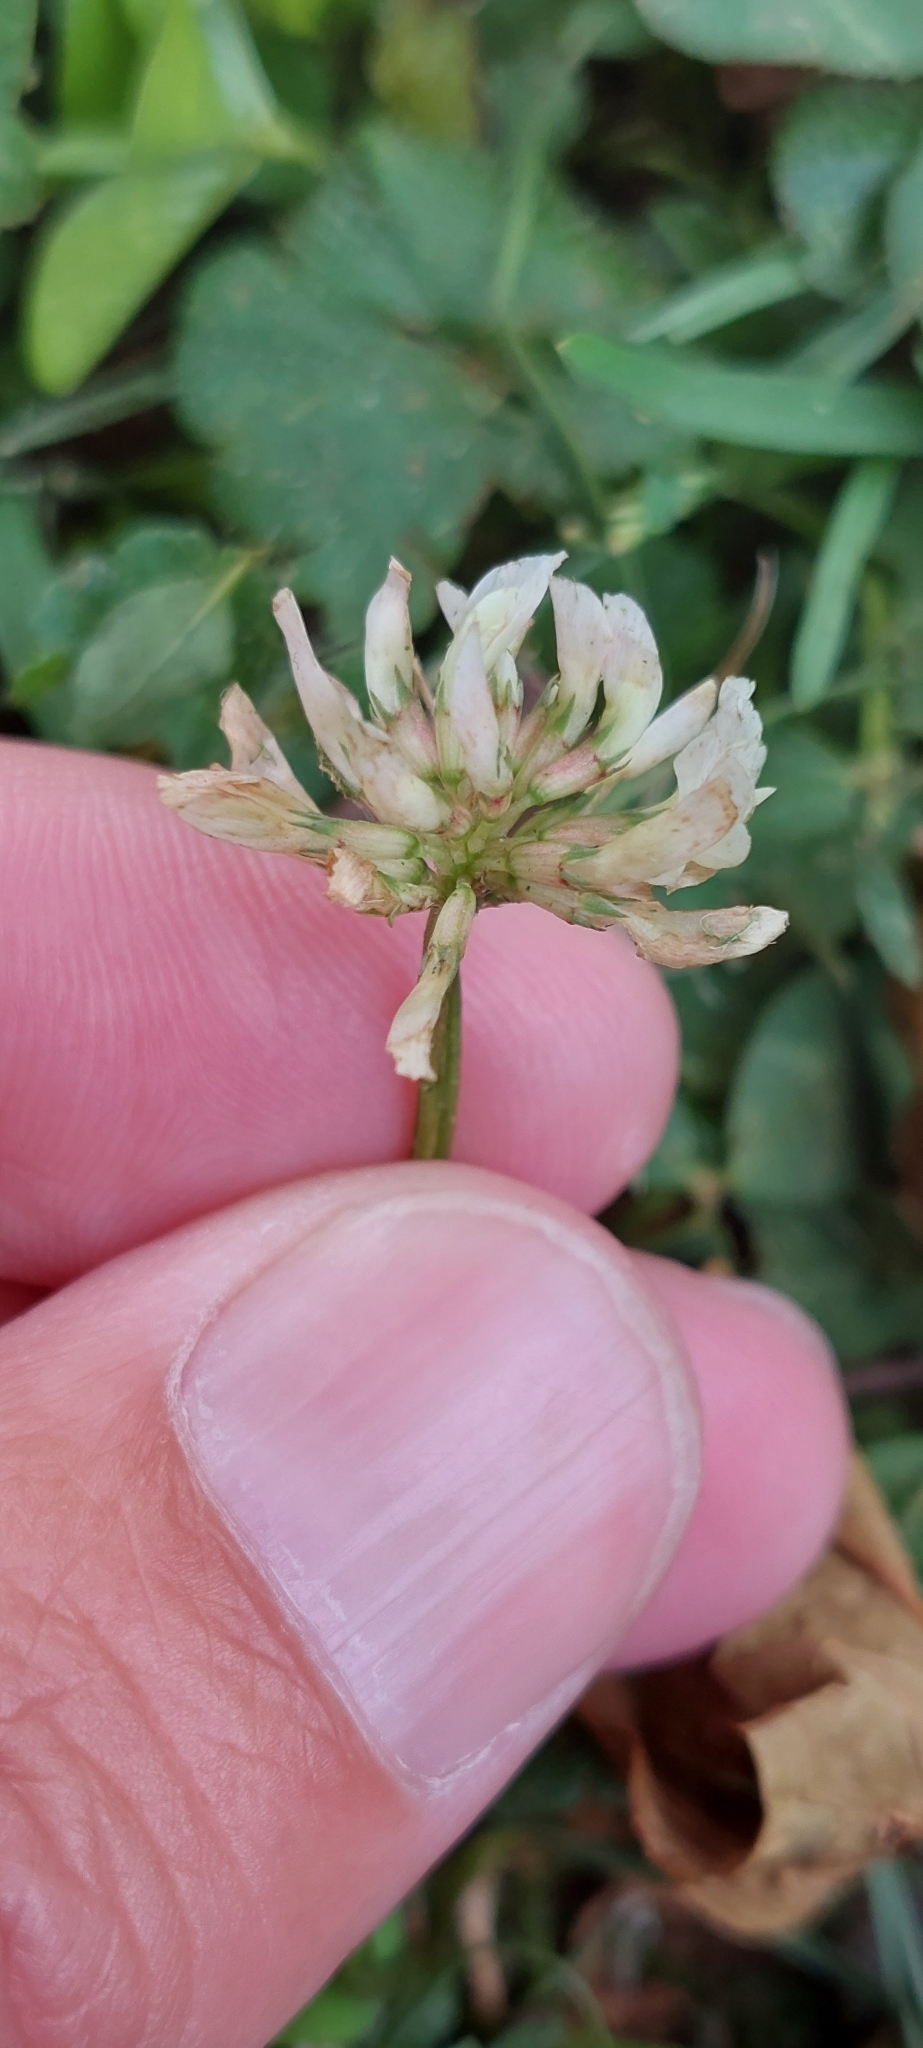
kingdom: Plantae
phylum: Tracheophyta
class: Magnoliopsida
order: Fabales
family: Fabaceae
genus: Trifolium
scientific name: Trifolium repens
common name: White clover
